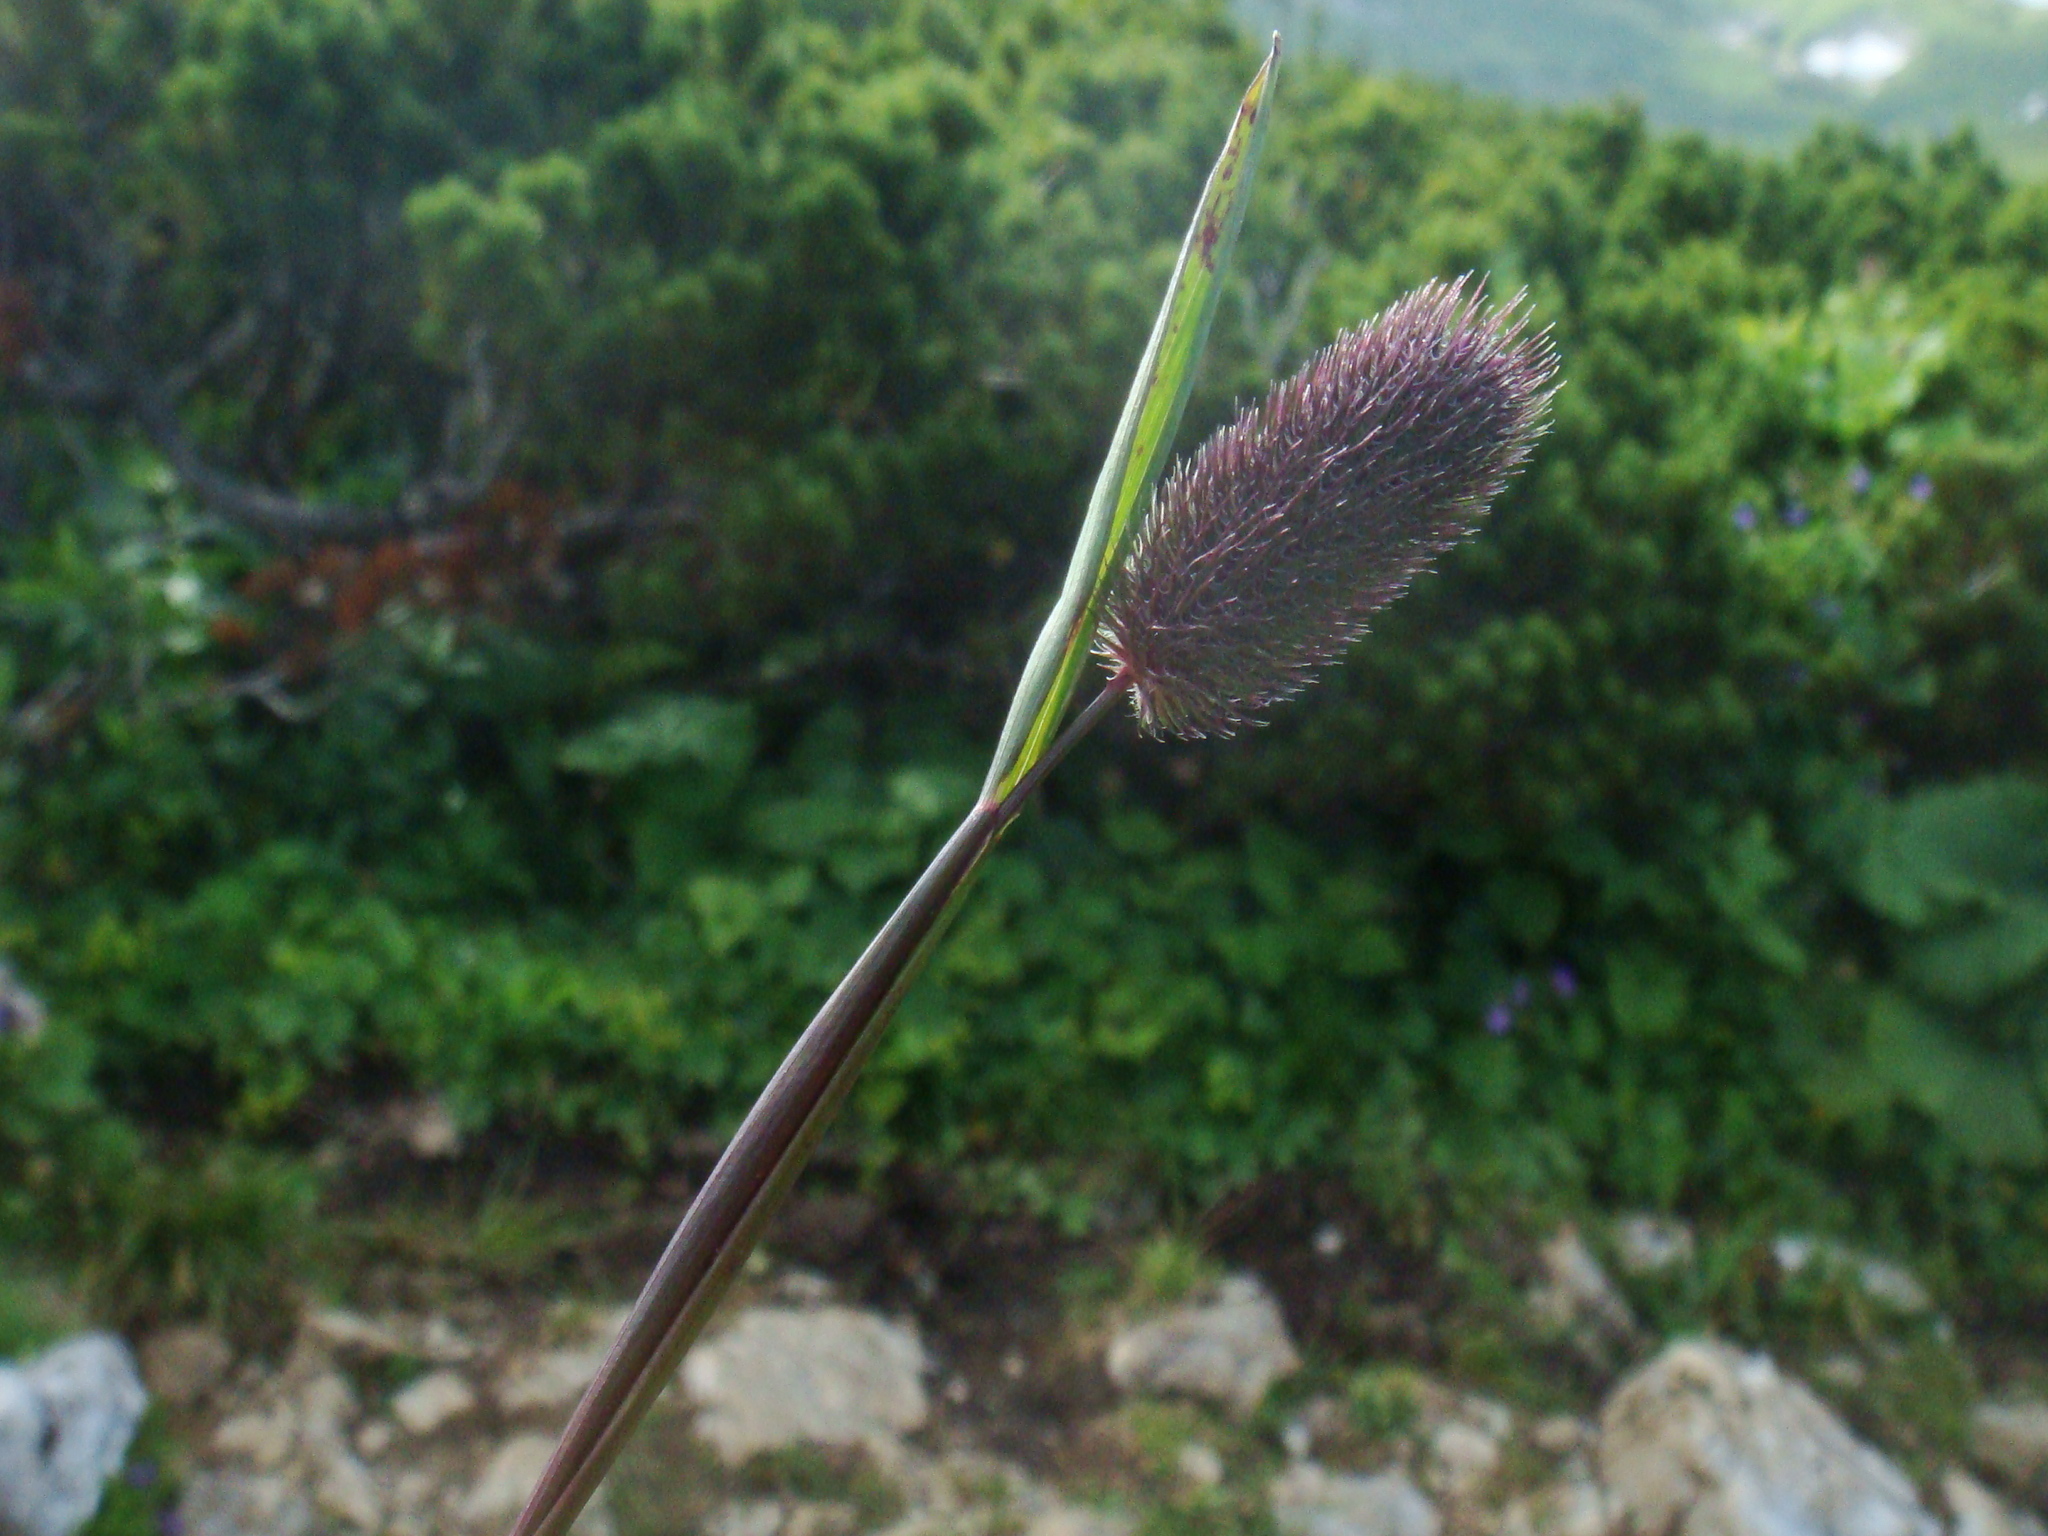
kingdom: Plantae
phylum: Tracheophyta
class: Liliopsida
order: Poales
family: Poaceae
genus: Phleum
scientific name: Phleum alpinum
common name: Alpine cat's-tail
